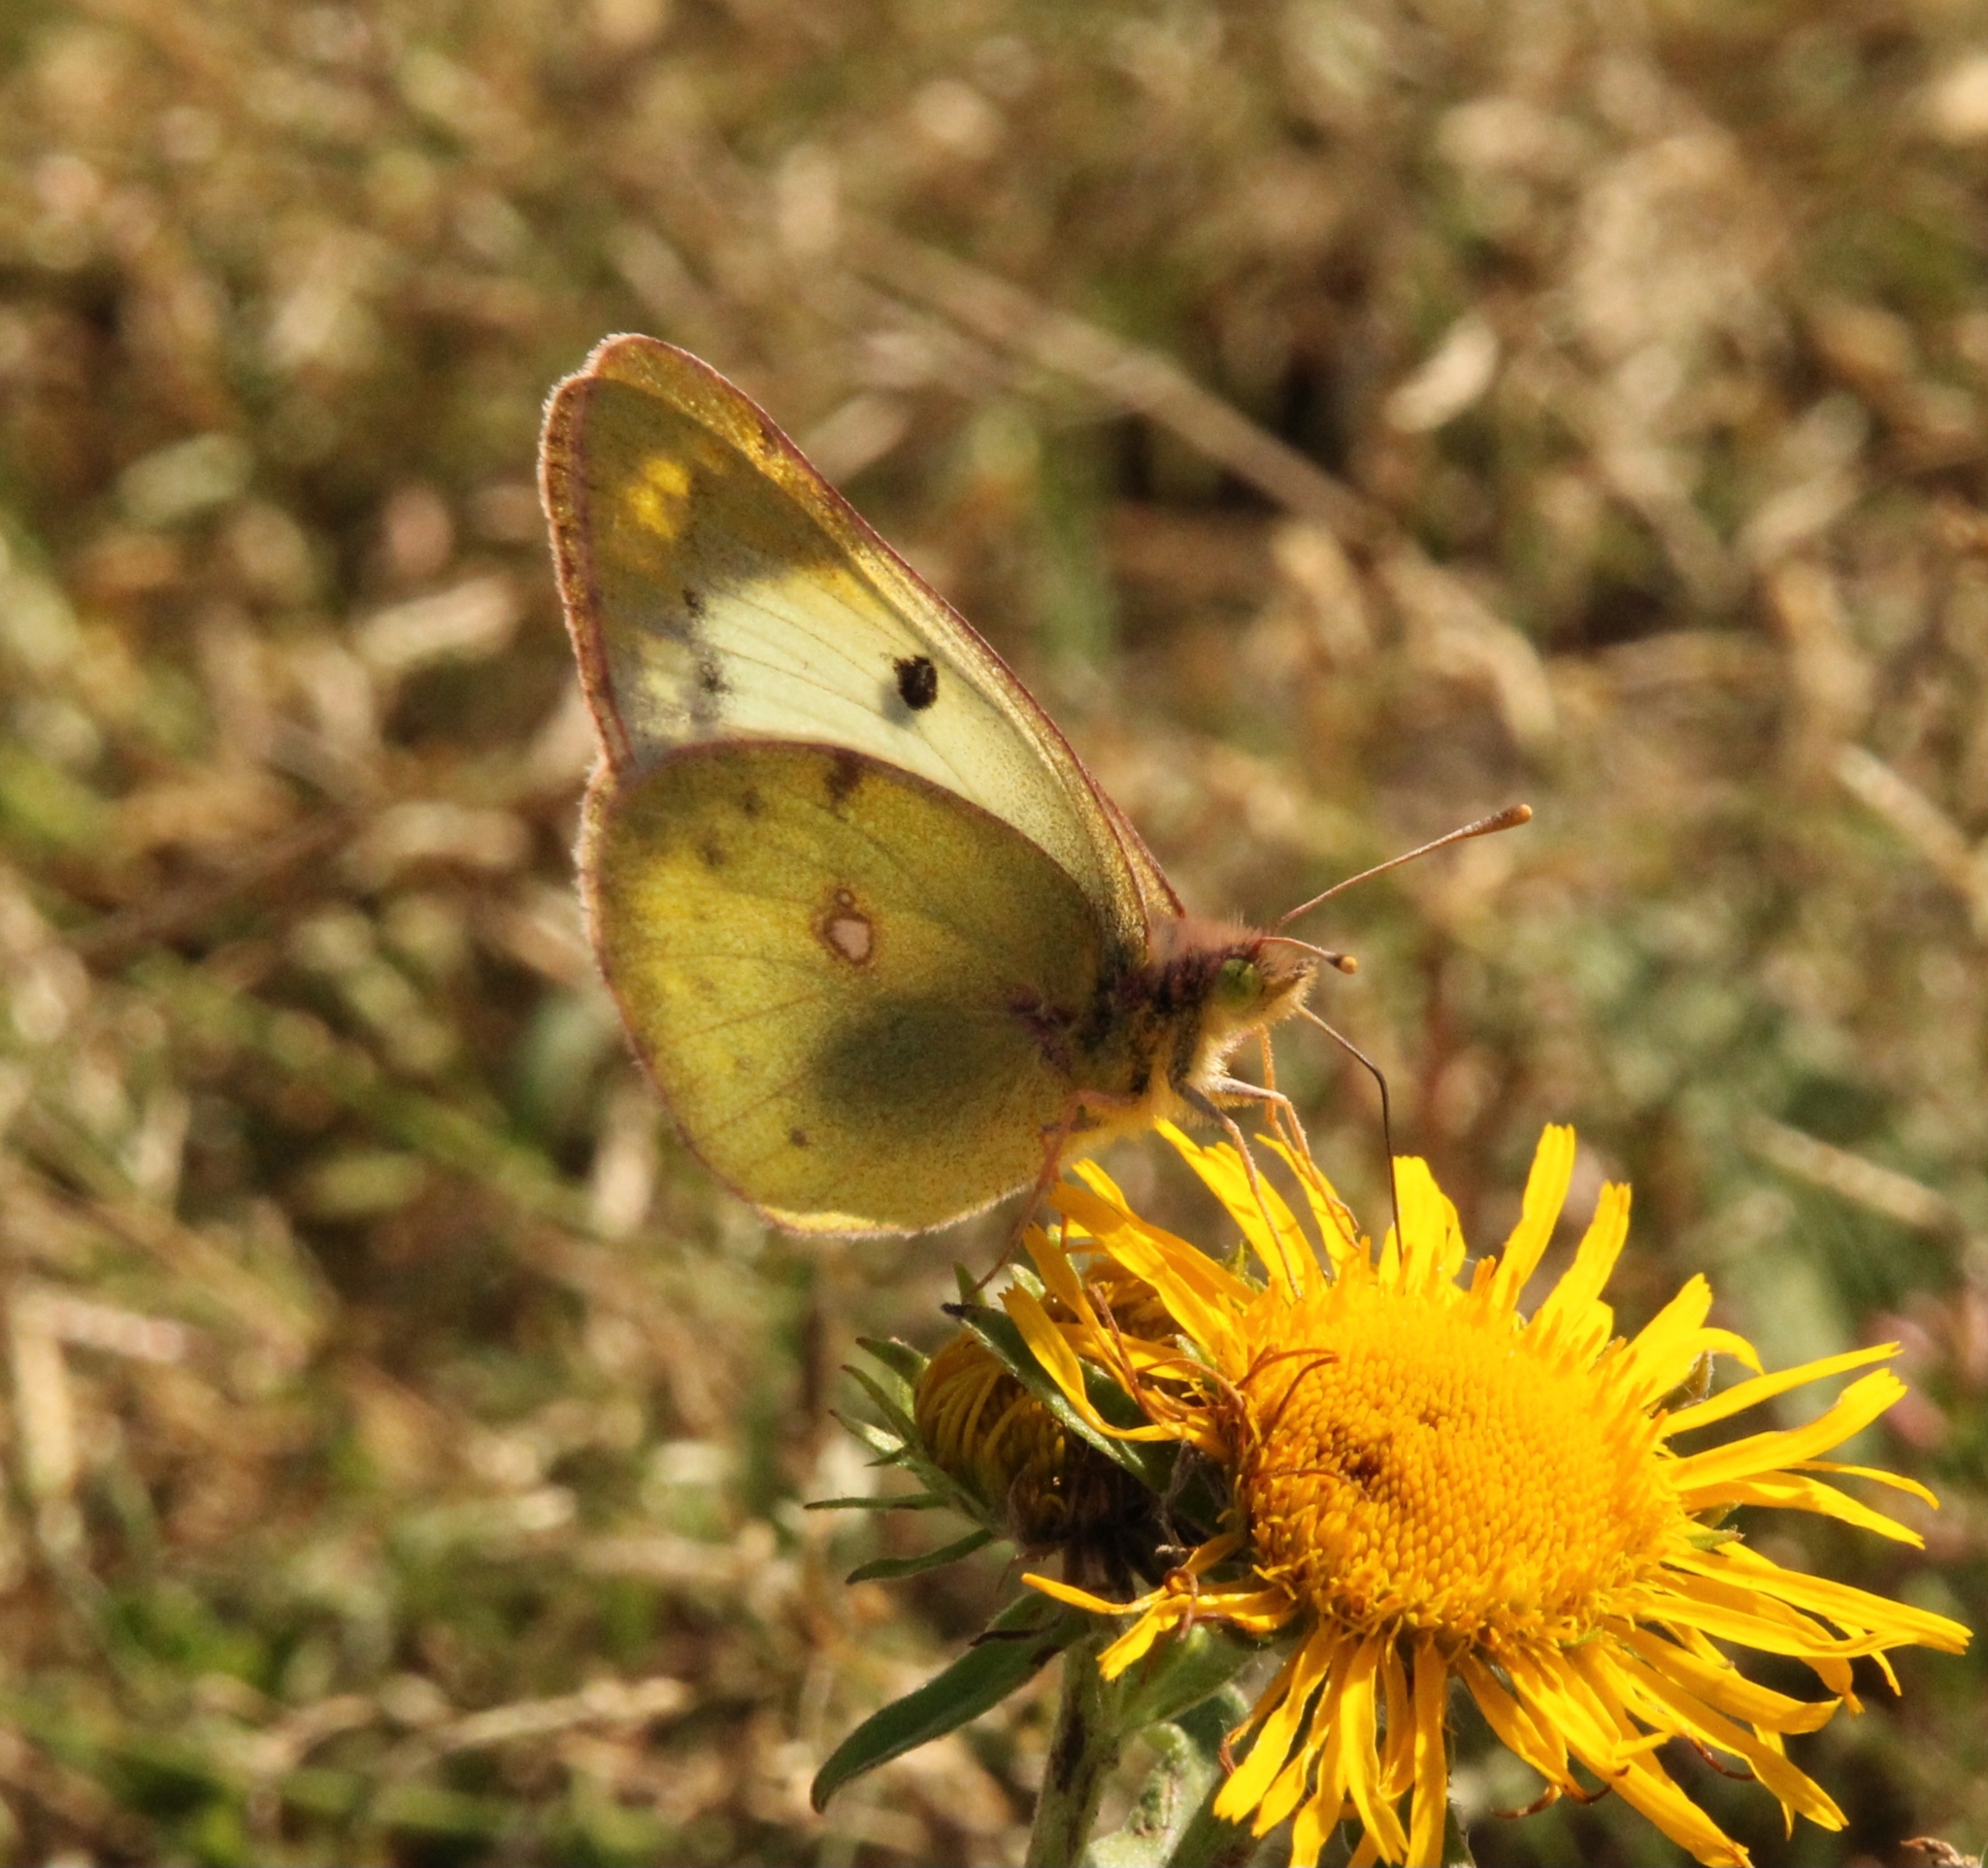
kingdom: Animalia
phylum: Arthropoda
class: Insecta
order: Lepidoptera
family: Pieridae
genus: Colias
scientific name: Colias hyale
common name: Pale clouded yellow
